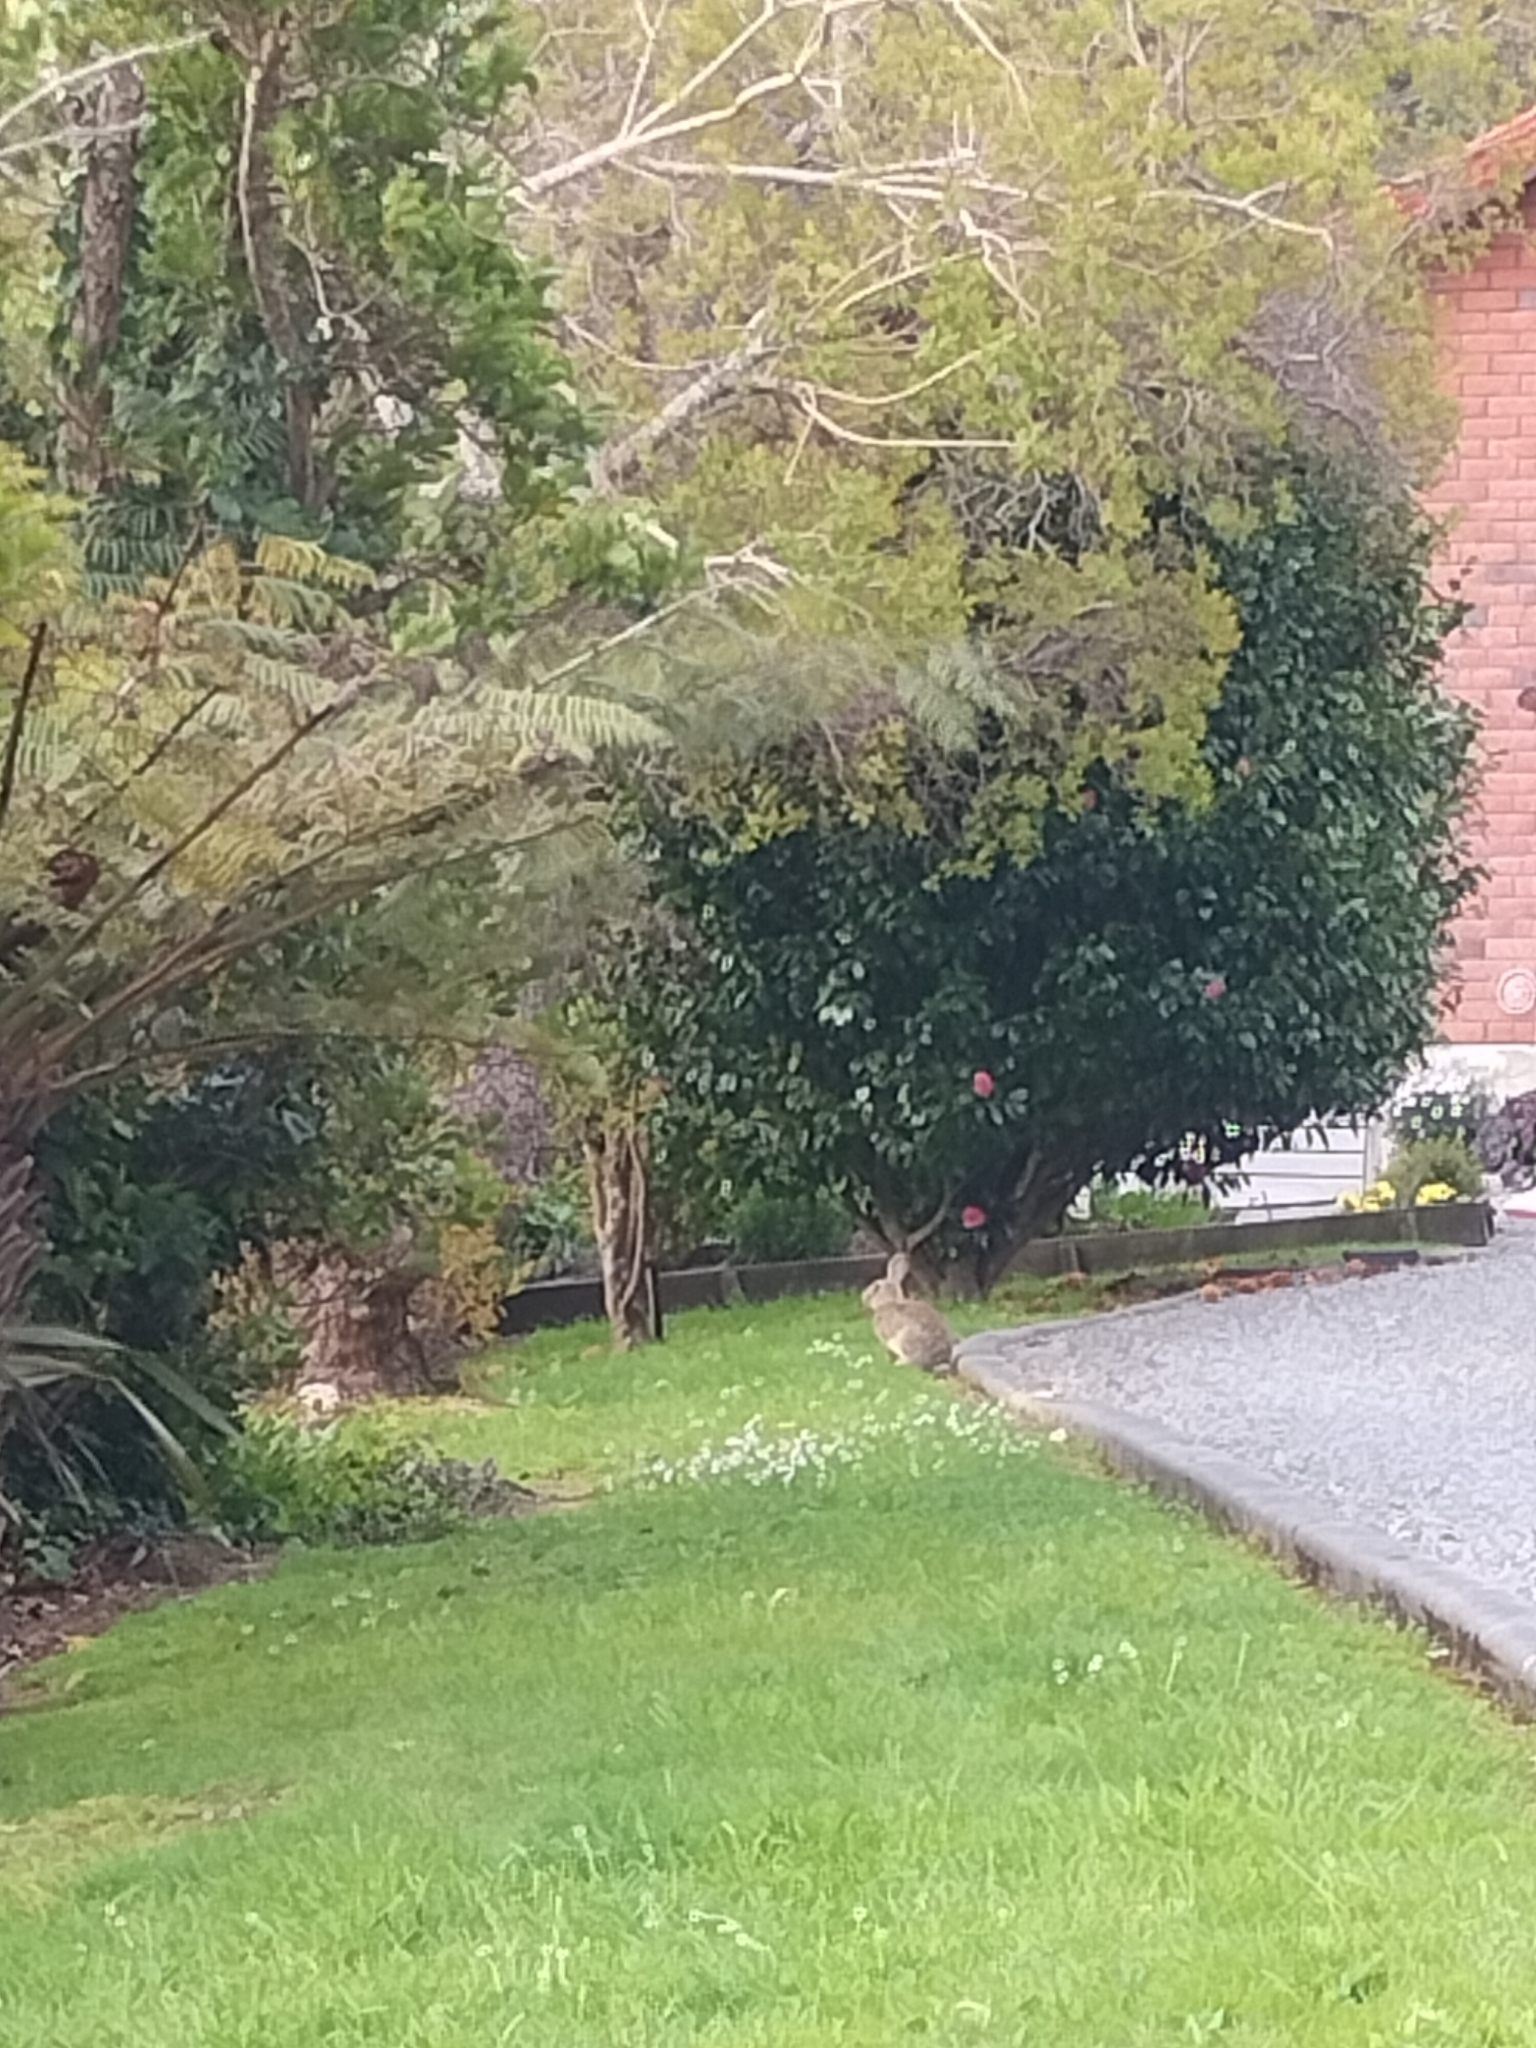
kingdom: Animalia
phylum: Chordata
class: Mammalia
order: Lagomorpha
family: Leporidae
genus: Oryctolagus
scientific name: Oryctolagus cuniculus
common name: European rabbit
